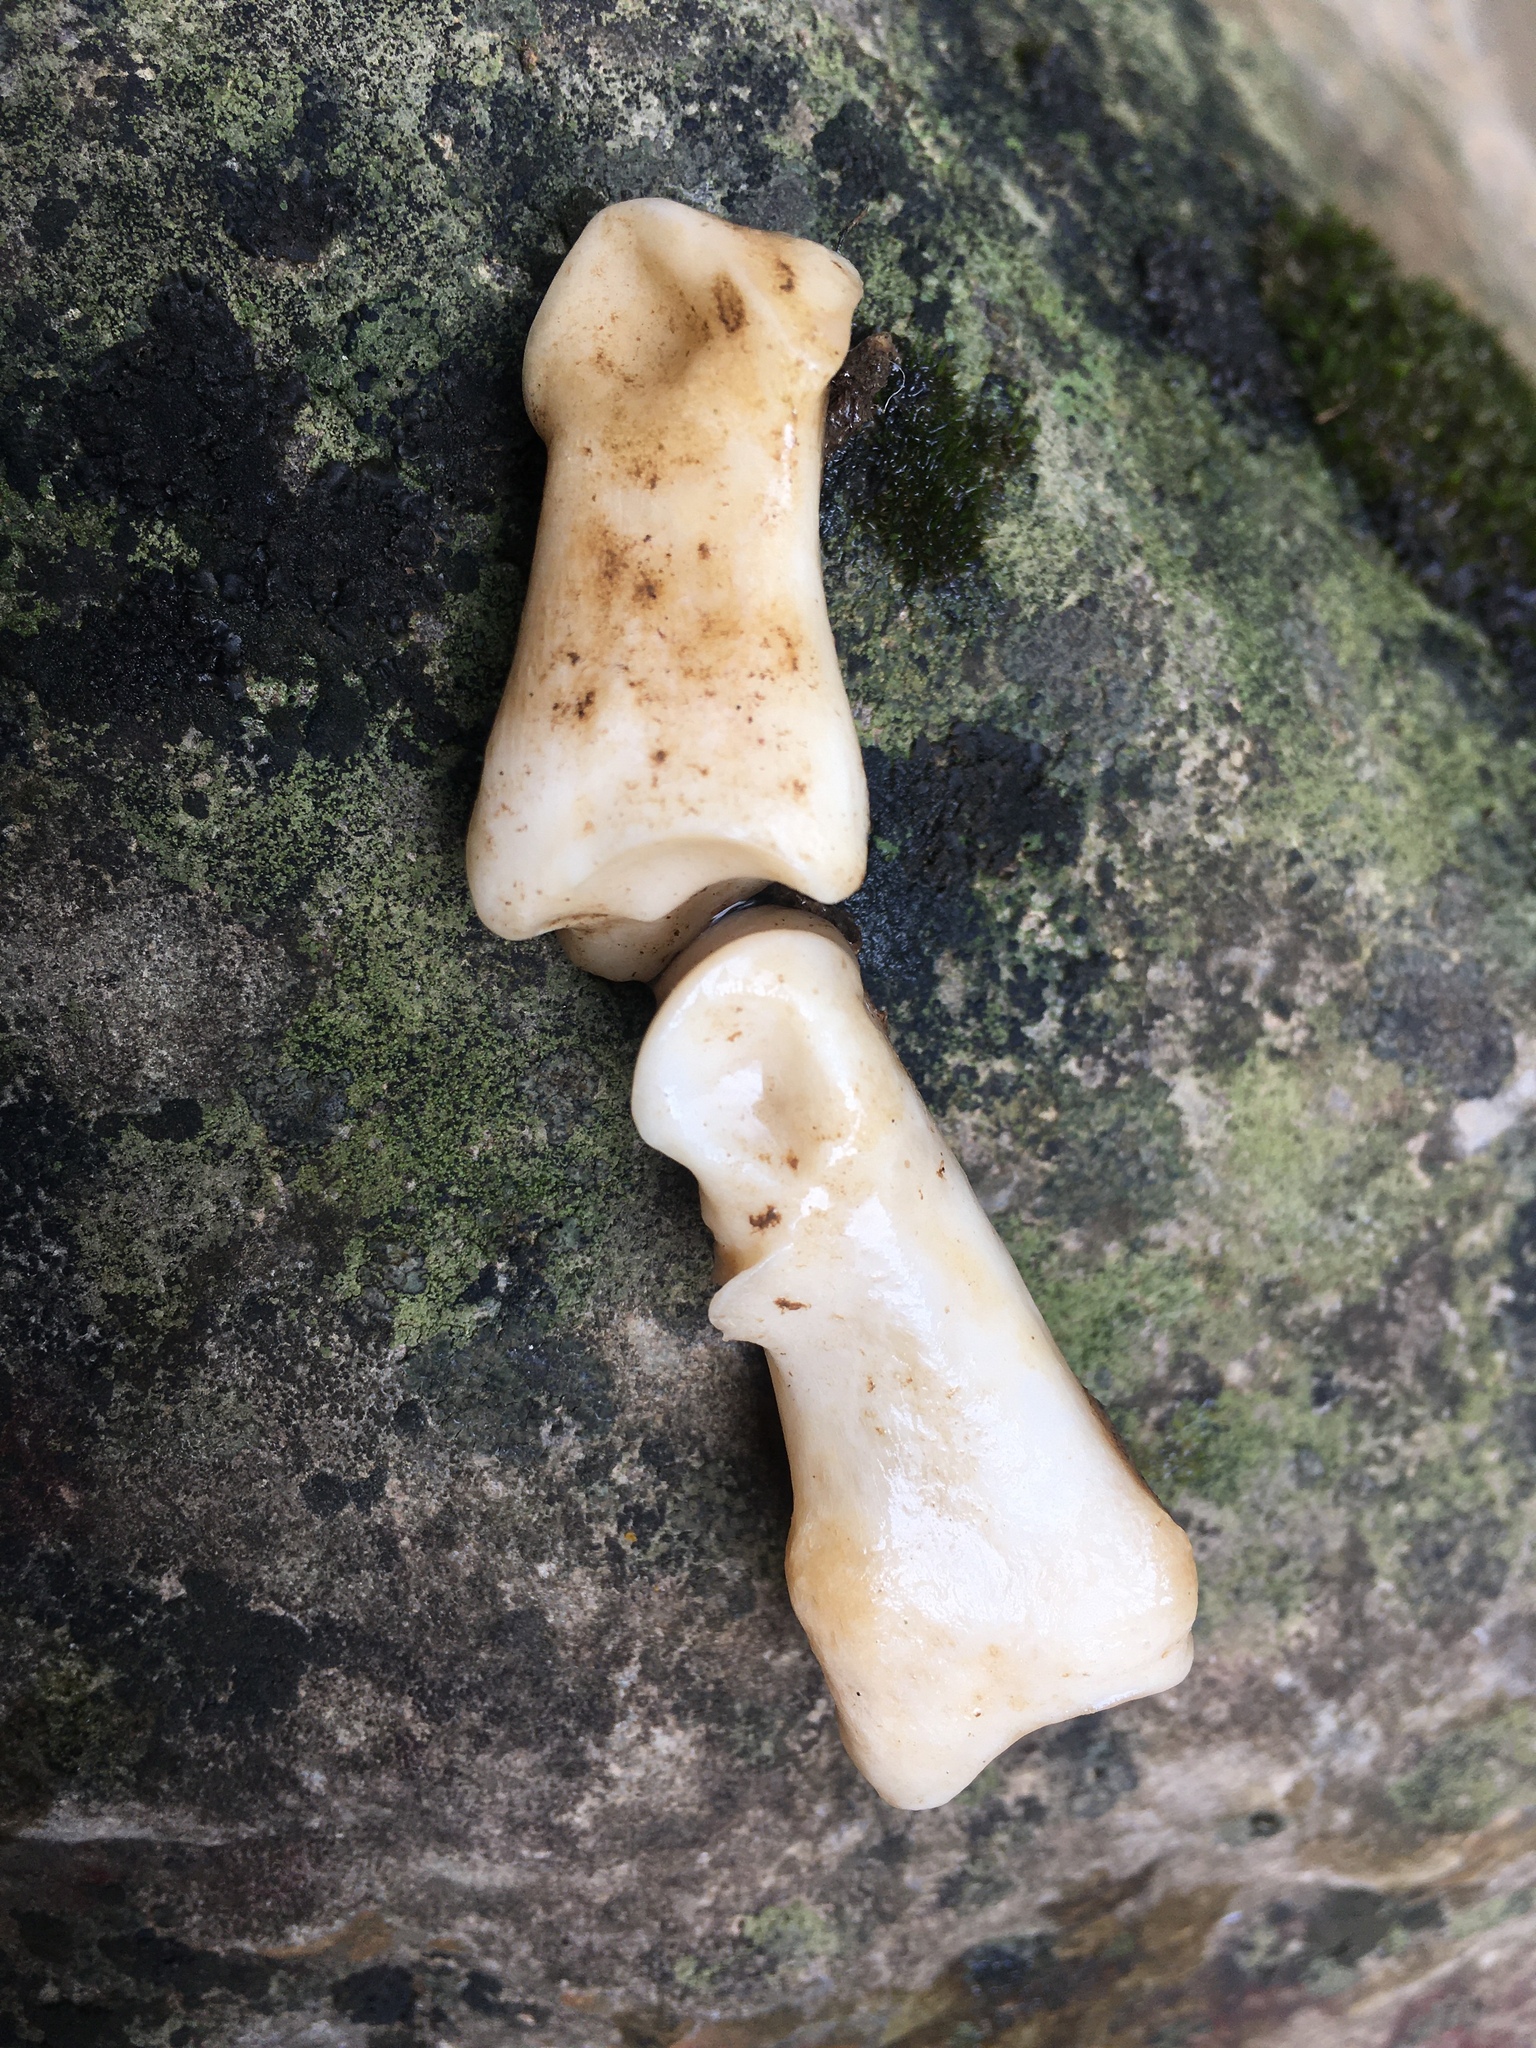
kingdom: Animalia
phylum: Chordata
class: Mammalia
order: Artiodactyla
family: Cervidae
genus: Odocoileus
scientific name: Odocoileus virginianus
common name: White-tailed deer
